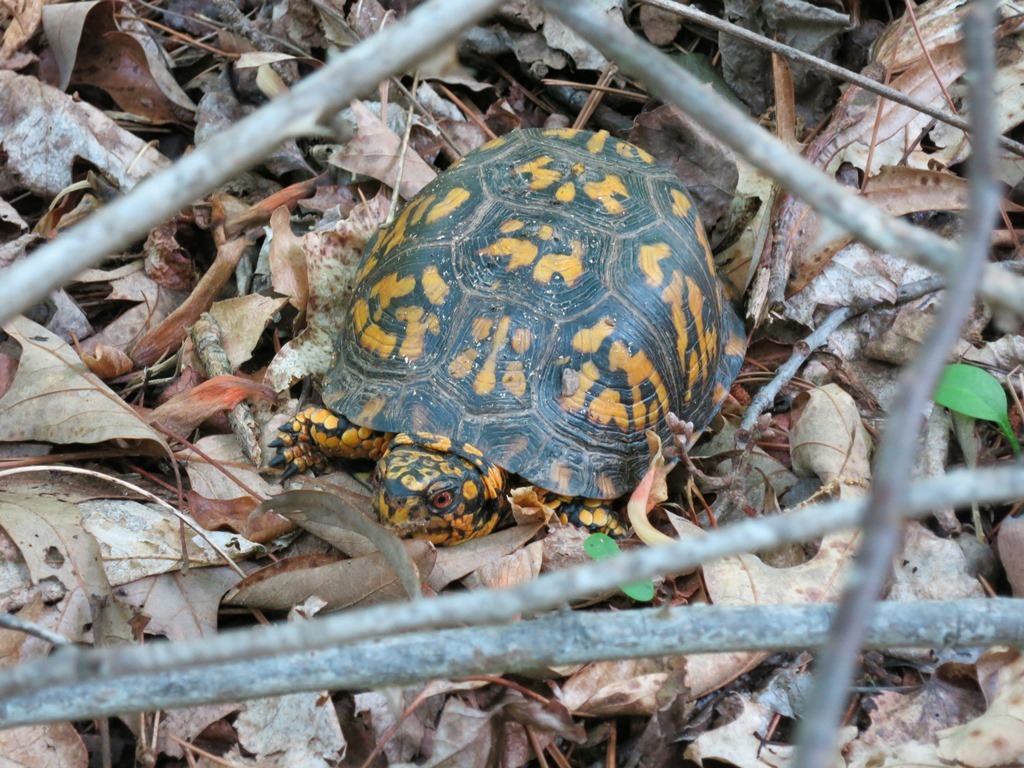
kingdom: Animalia
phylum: Chordata
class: Testudines
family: Emydidae
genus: Terrapene
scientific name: Terrapene carolina
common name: Common box turtle
